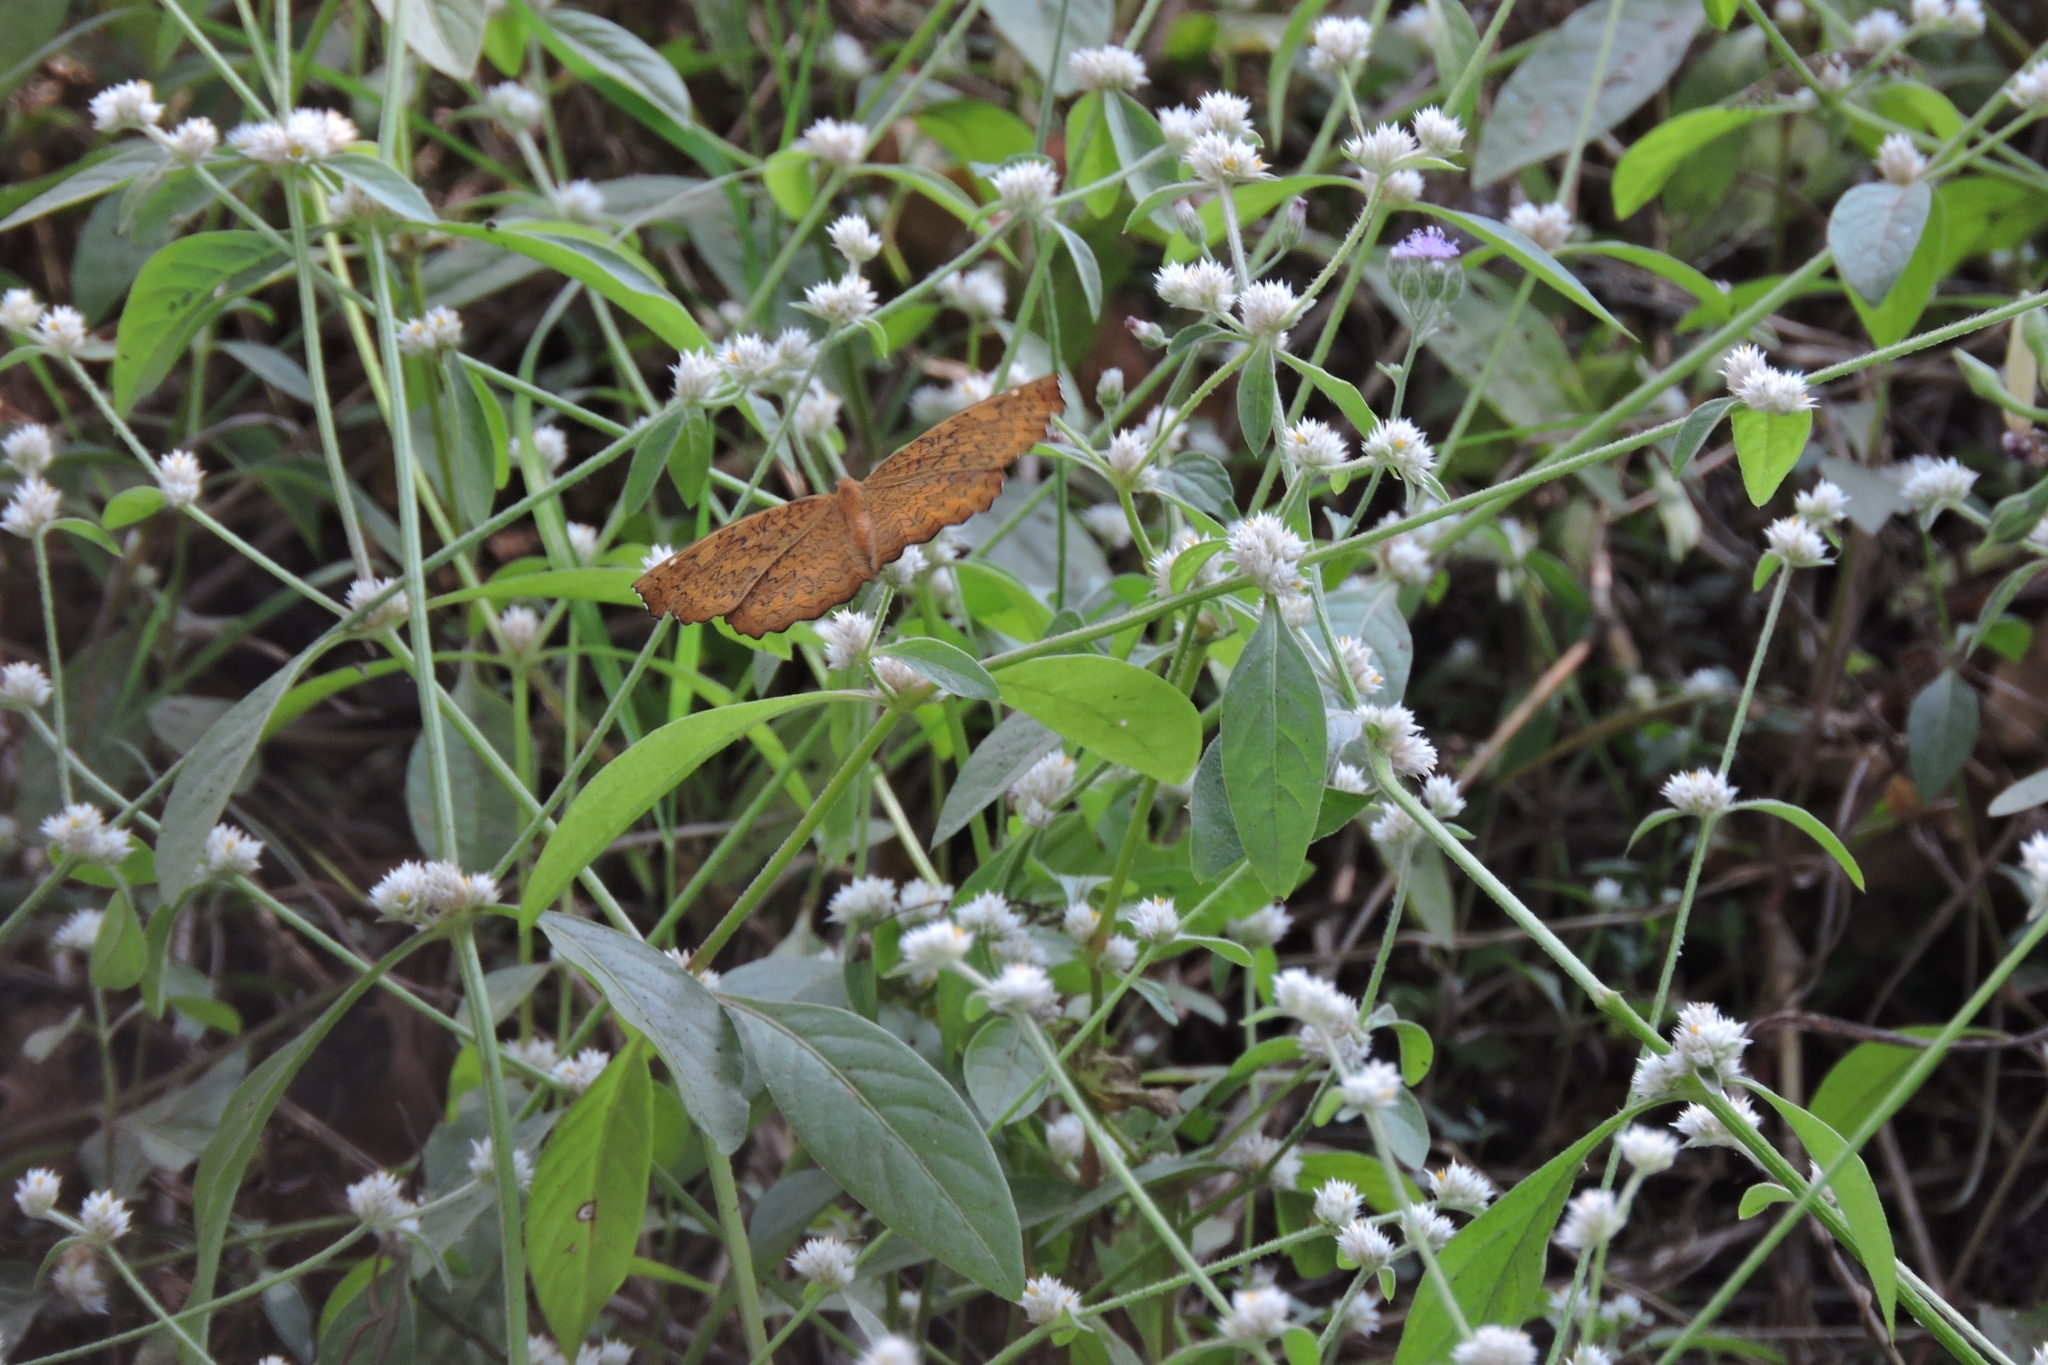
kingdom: Animalia
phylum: Arthropoda
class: Insecta
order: Lepidoptera
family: Nymphalidae
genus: Ariadne
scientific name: Ariadne merione
